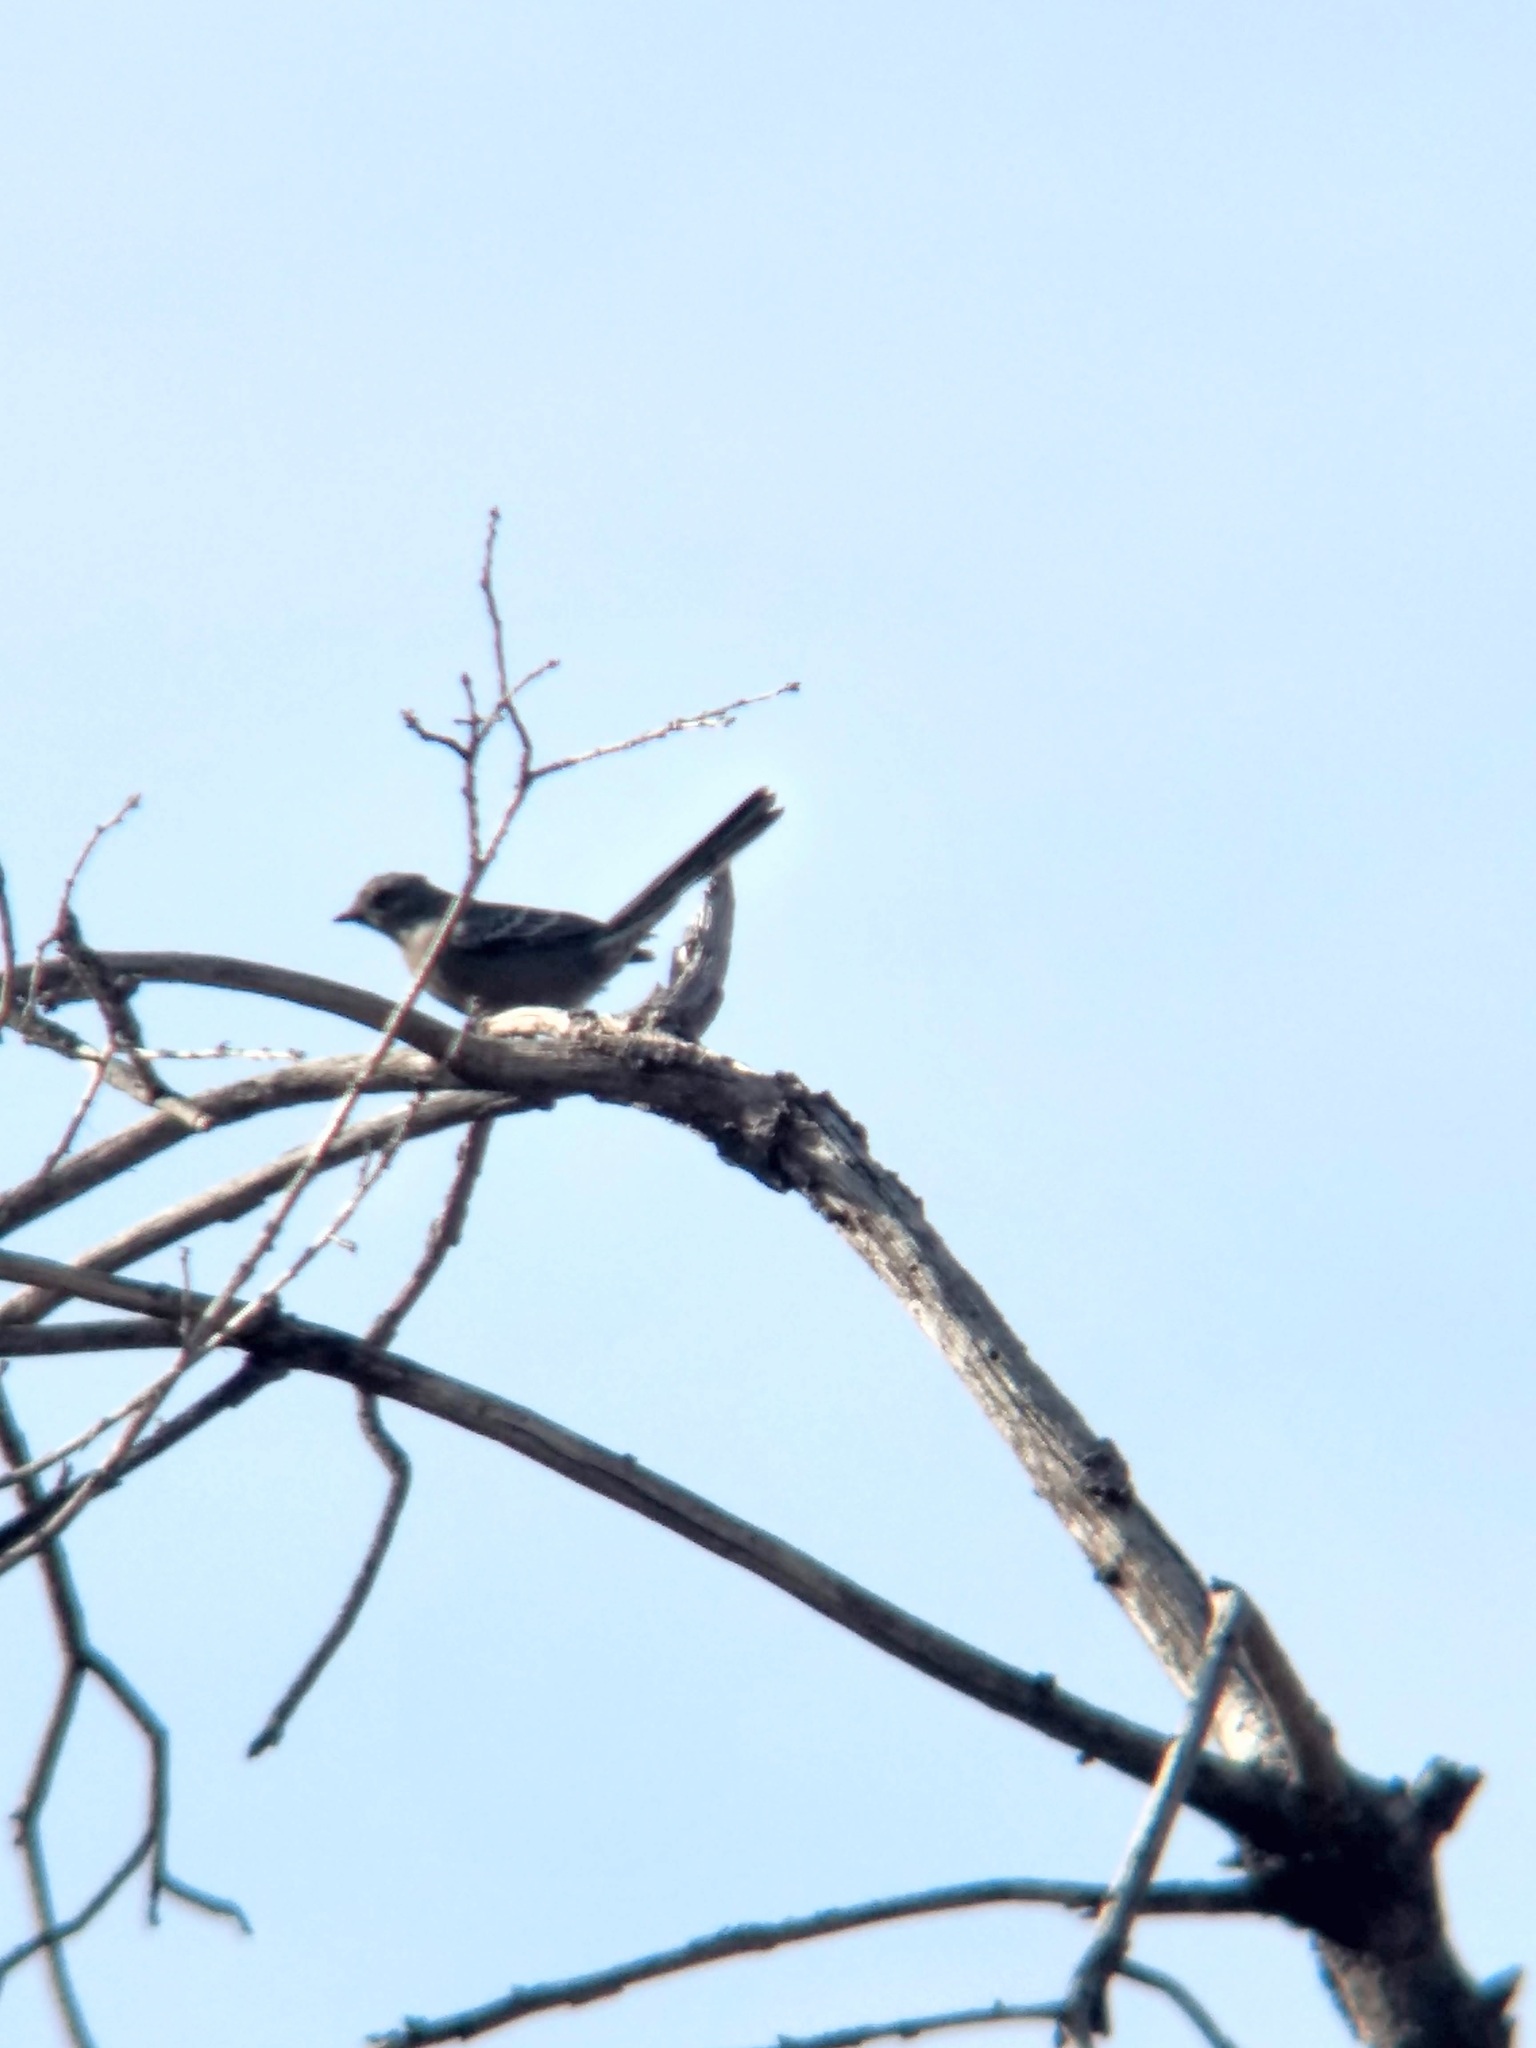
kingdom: Animalia
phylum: Chordata
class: Aves
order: Passeriformes
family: Ptilogonatidae
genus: Phainopepla
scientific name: Phainopepla nitens
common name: Phainopepla
